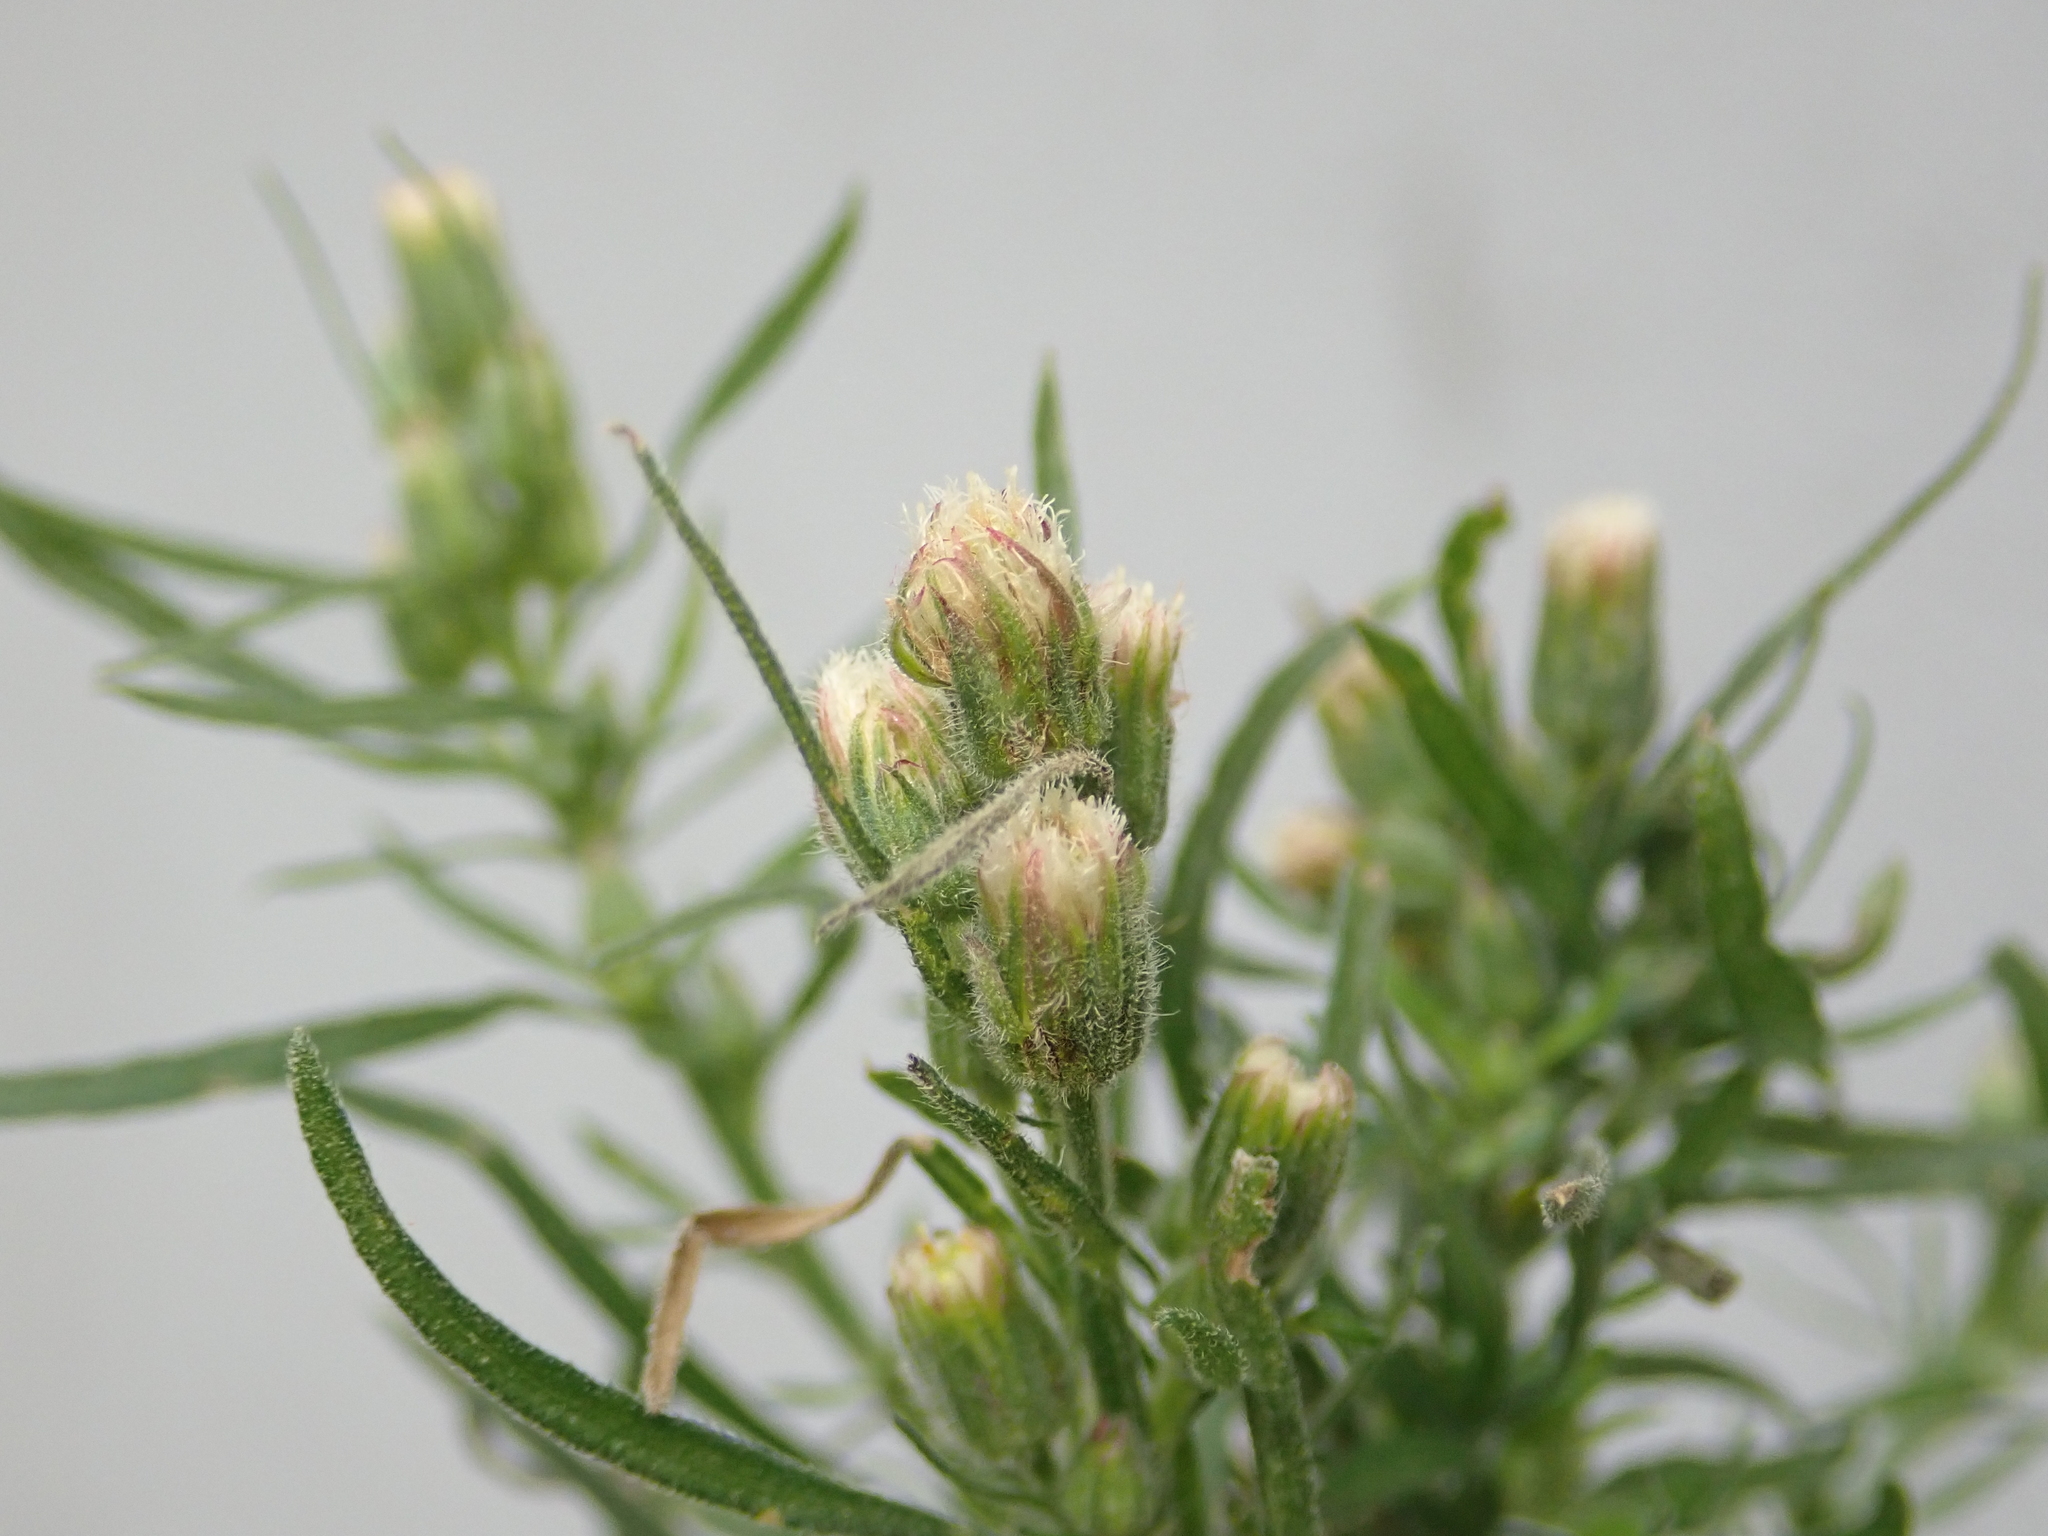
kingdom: Plantae
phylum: Tracheophyta
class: Magnoliopsida
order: Asterales
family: Asteraceae
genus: Erigeron
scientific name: Erigeron bonariensis
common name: Argentine fleabane
